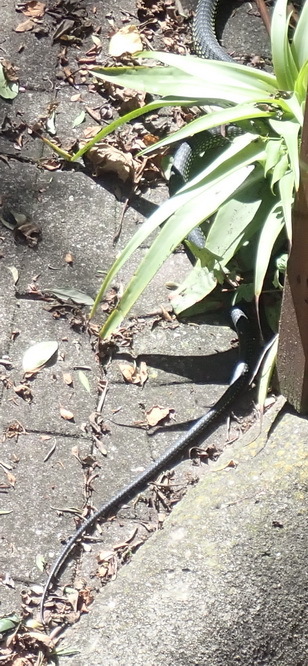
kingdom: Animalia
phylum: Chordata
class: Squamata
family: Colubridae
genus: Dispholidus
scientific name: Dispholidus typus
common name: Boomslang
